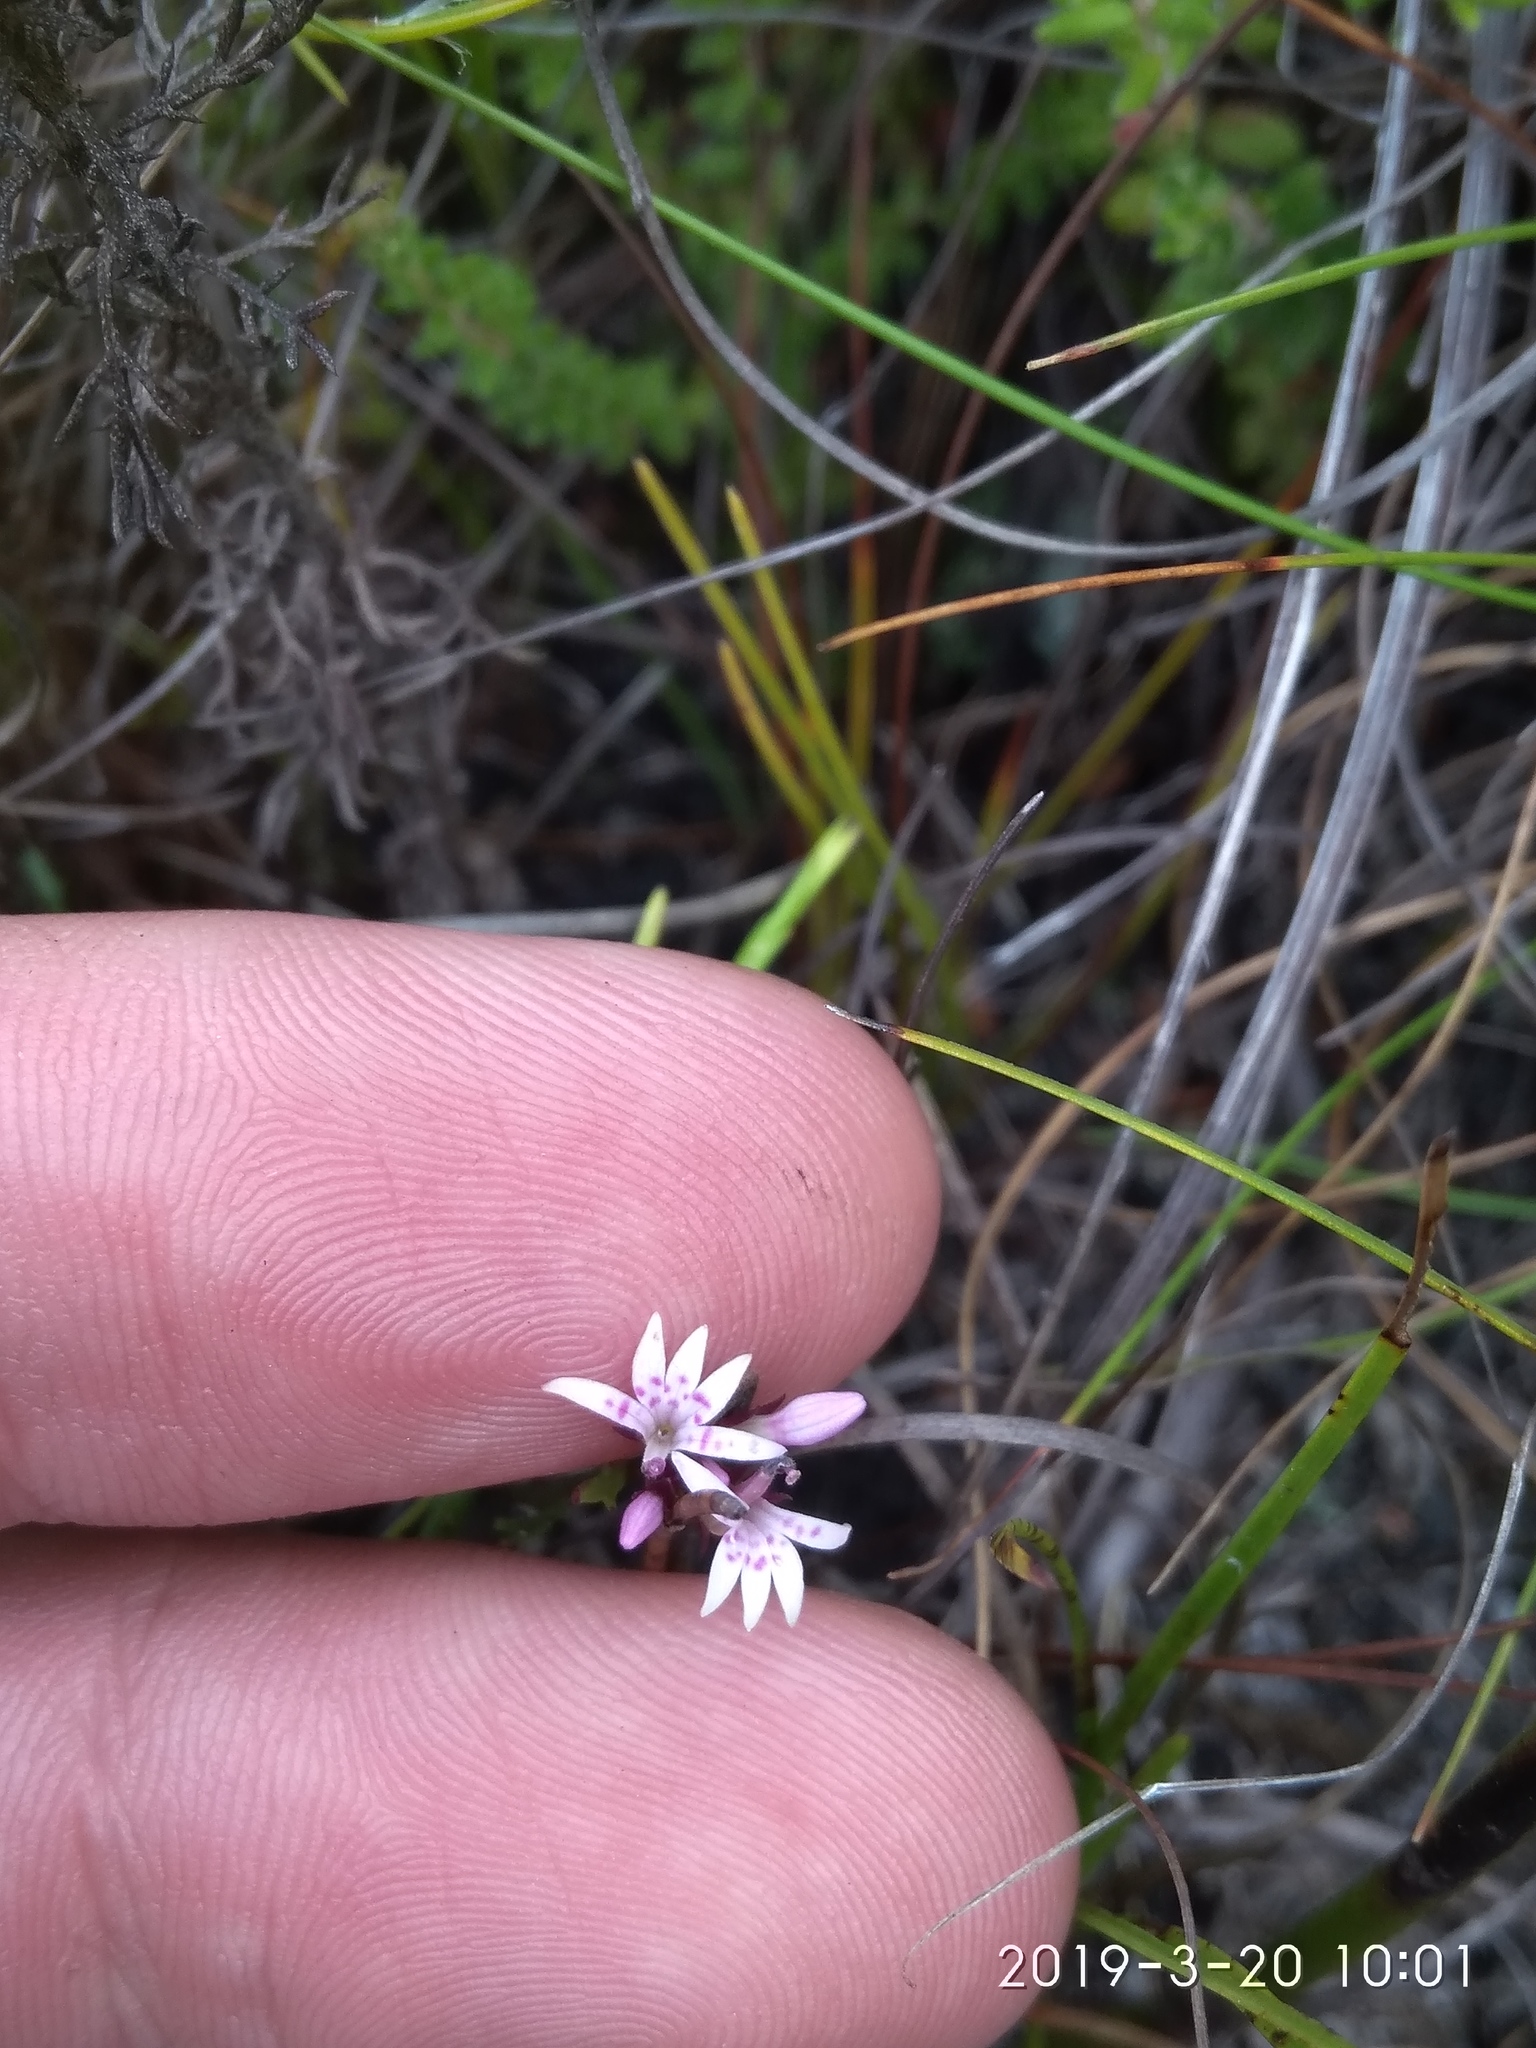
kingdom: Plantae
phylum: Tracheophyta
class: Magnoliopsida
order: Asterales
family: Campanulaceae
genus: Lobelia
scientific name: Lobelia jasionoides
